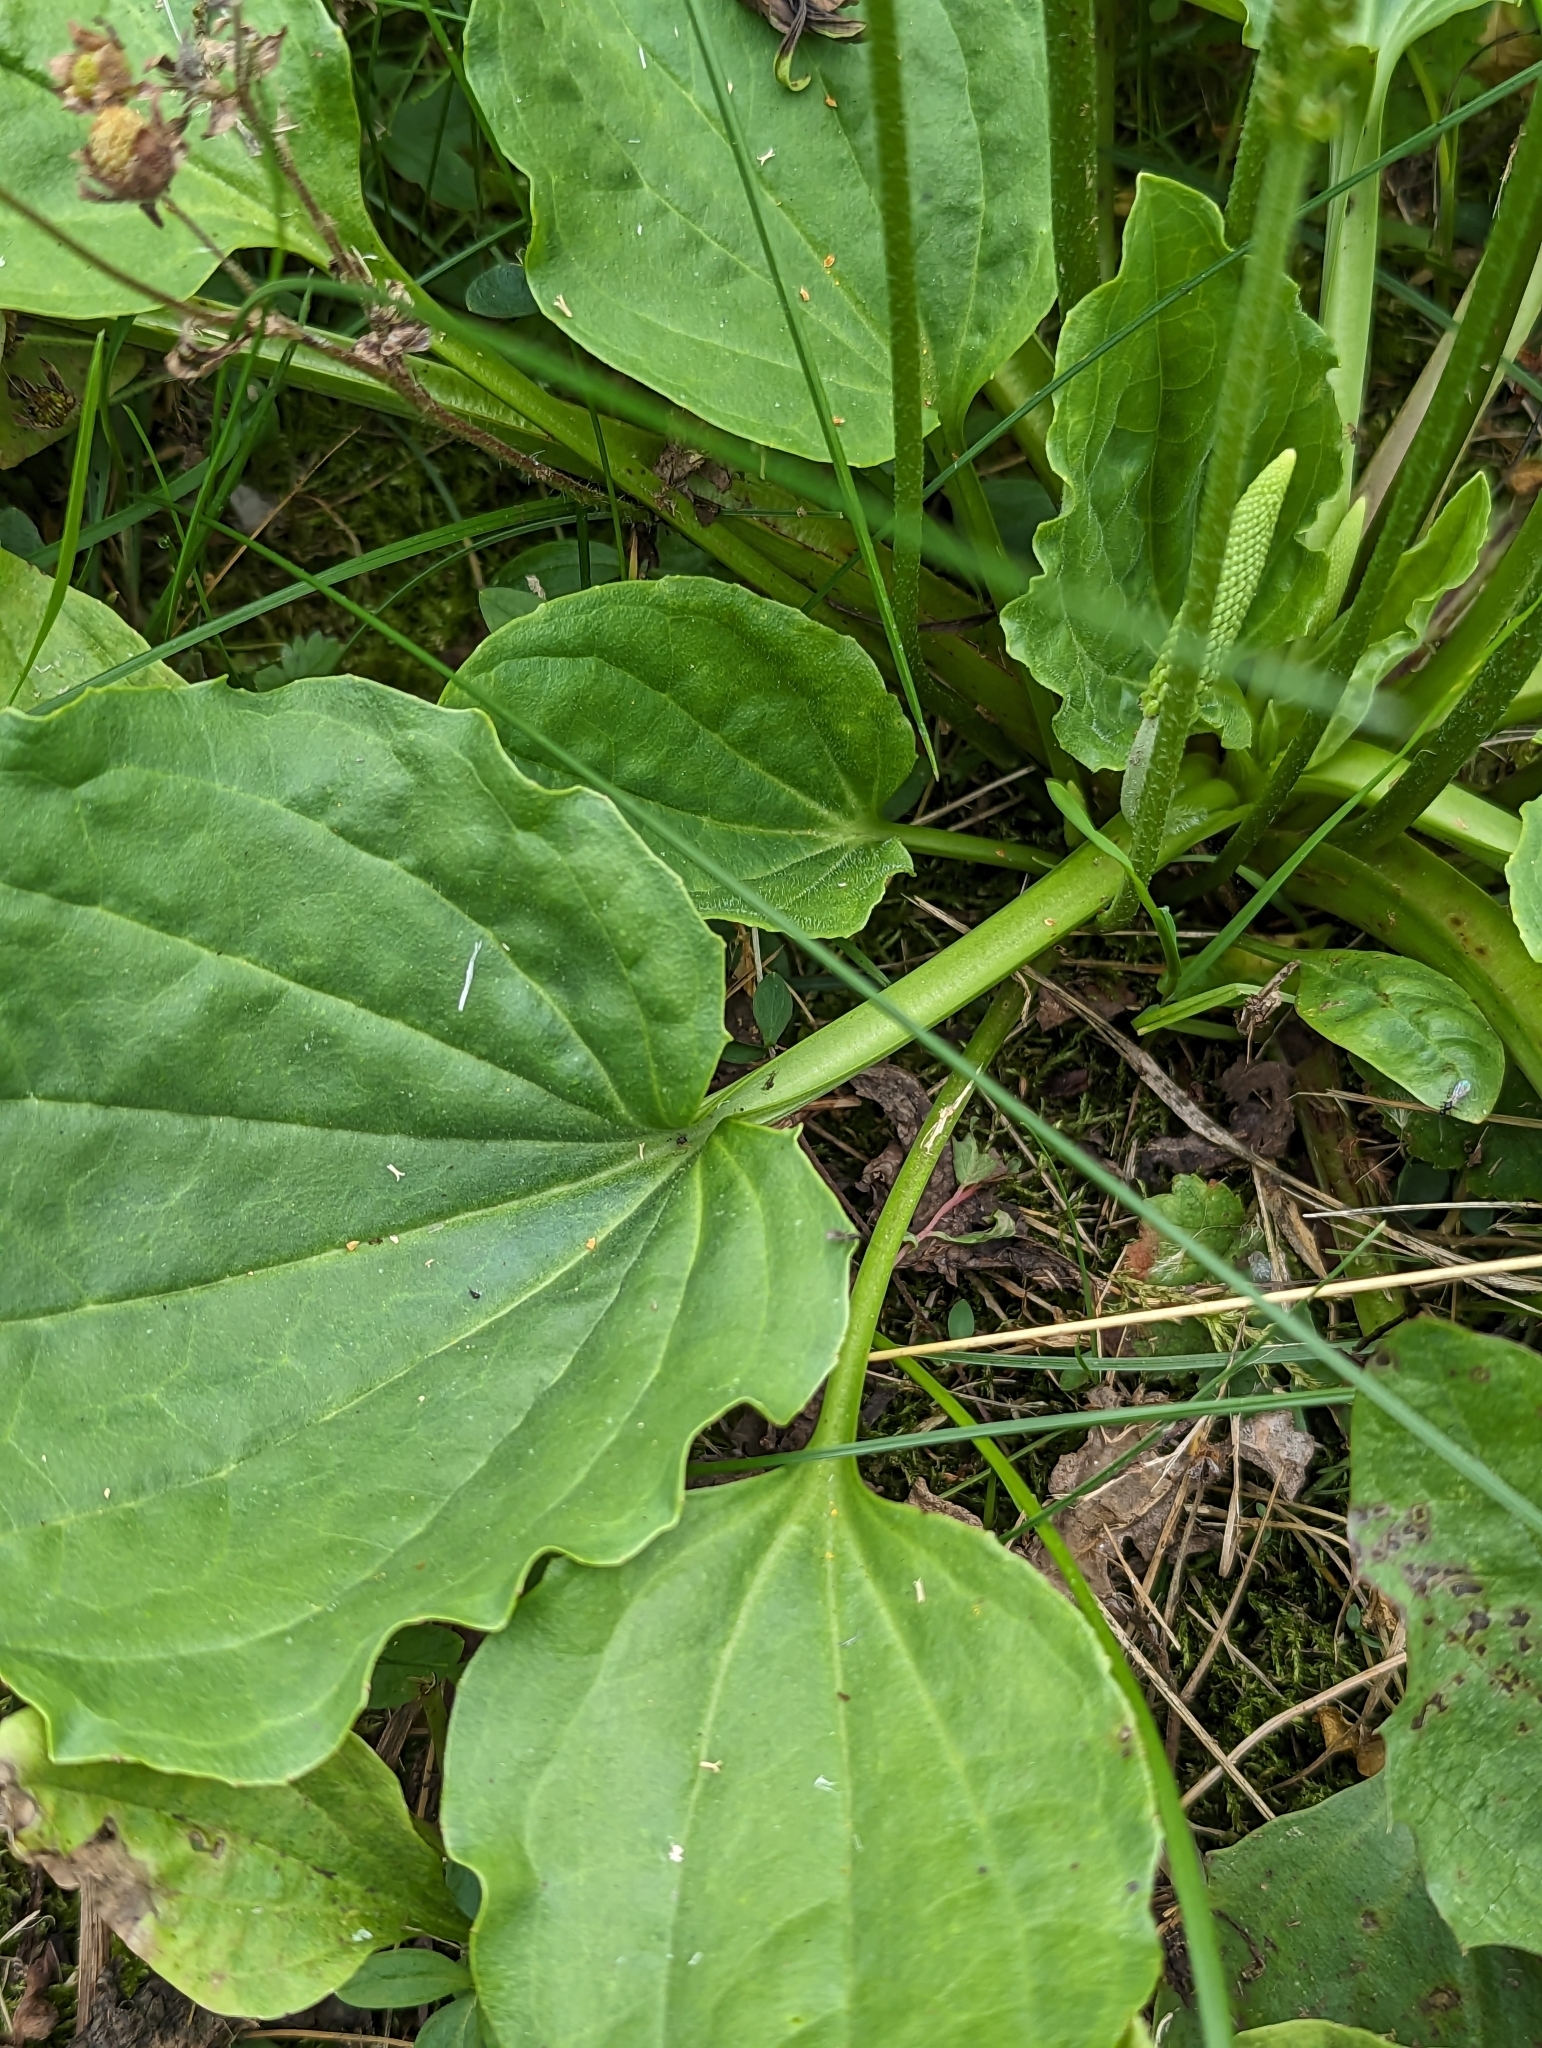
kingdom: Plantae
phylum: Tracheophyta
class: Magnoliopsida
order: Lamiales
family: Plantaginaceae
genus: Plantago
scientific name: Plantago major
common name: Common plantain
